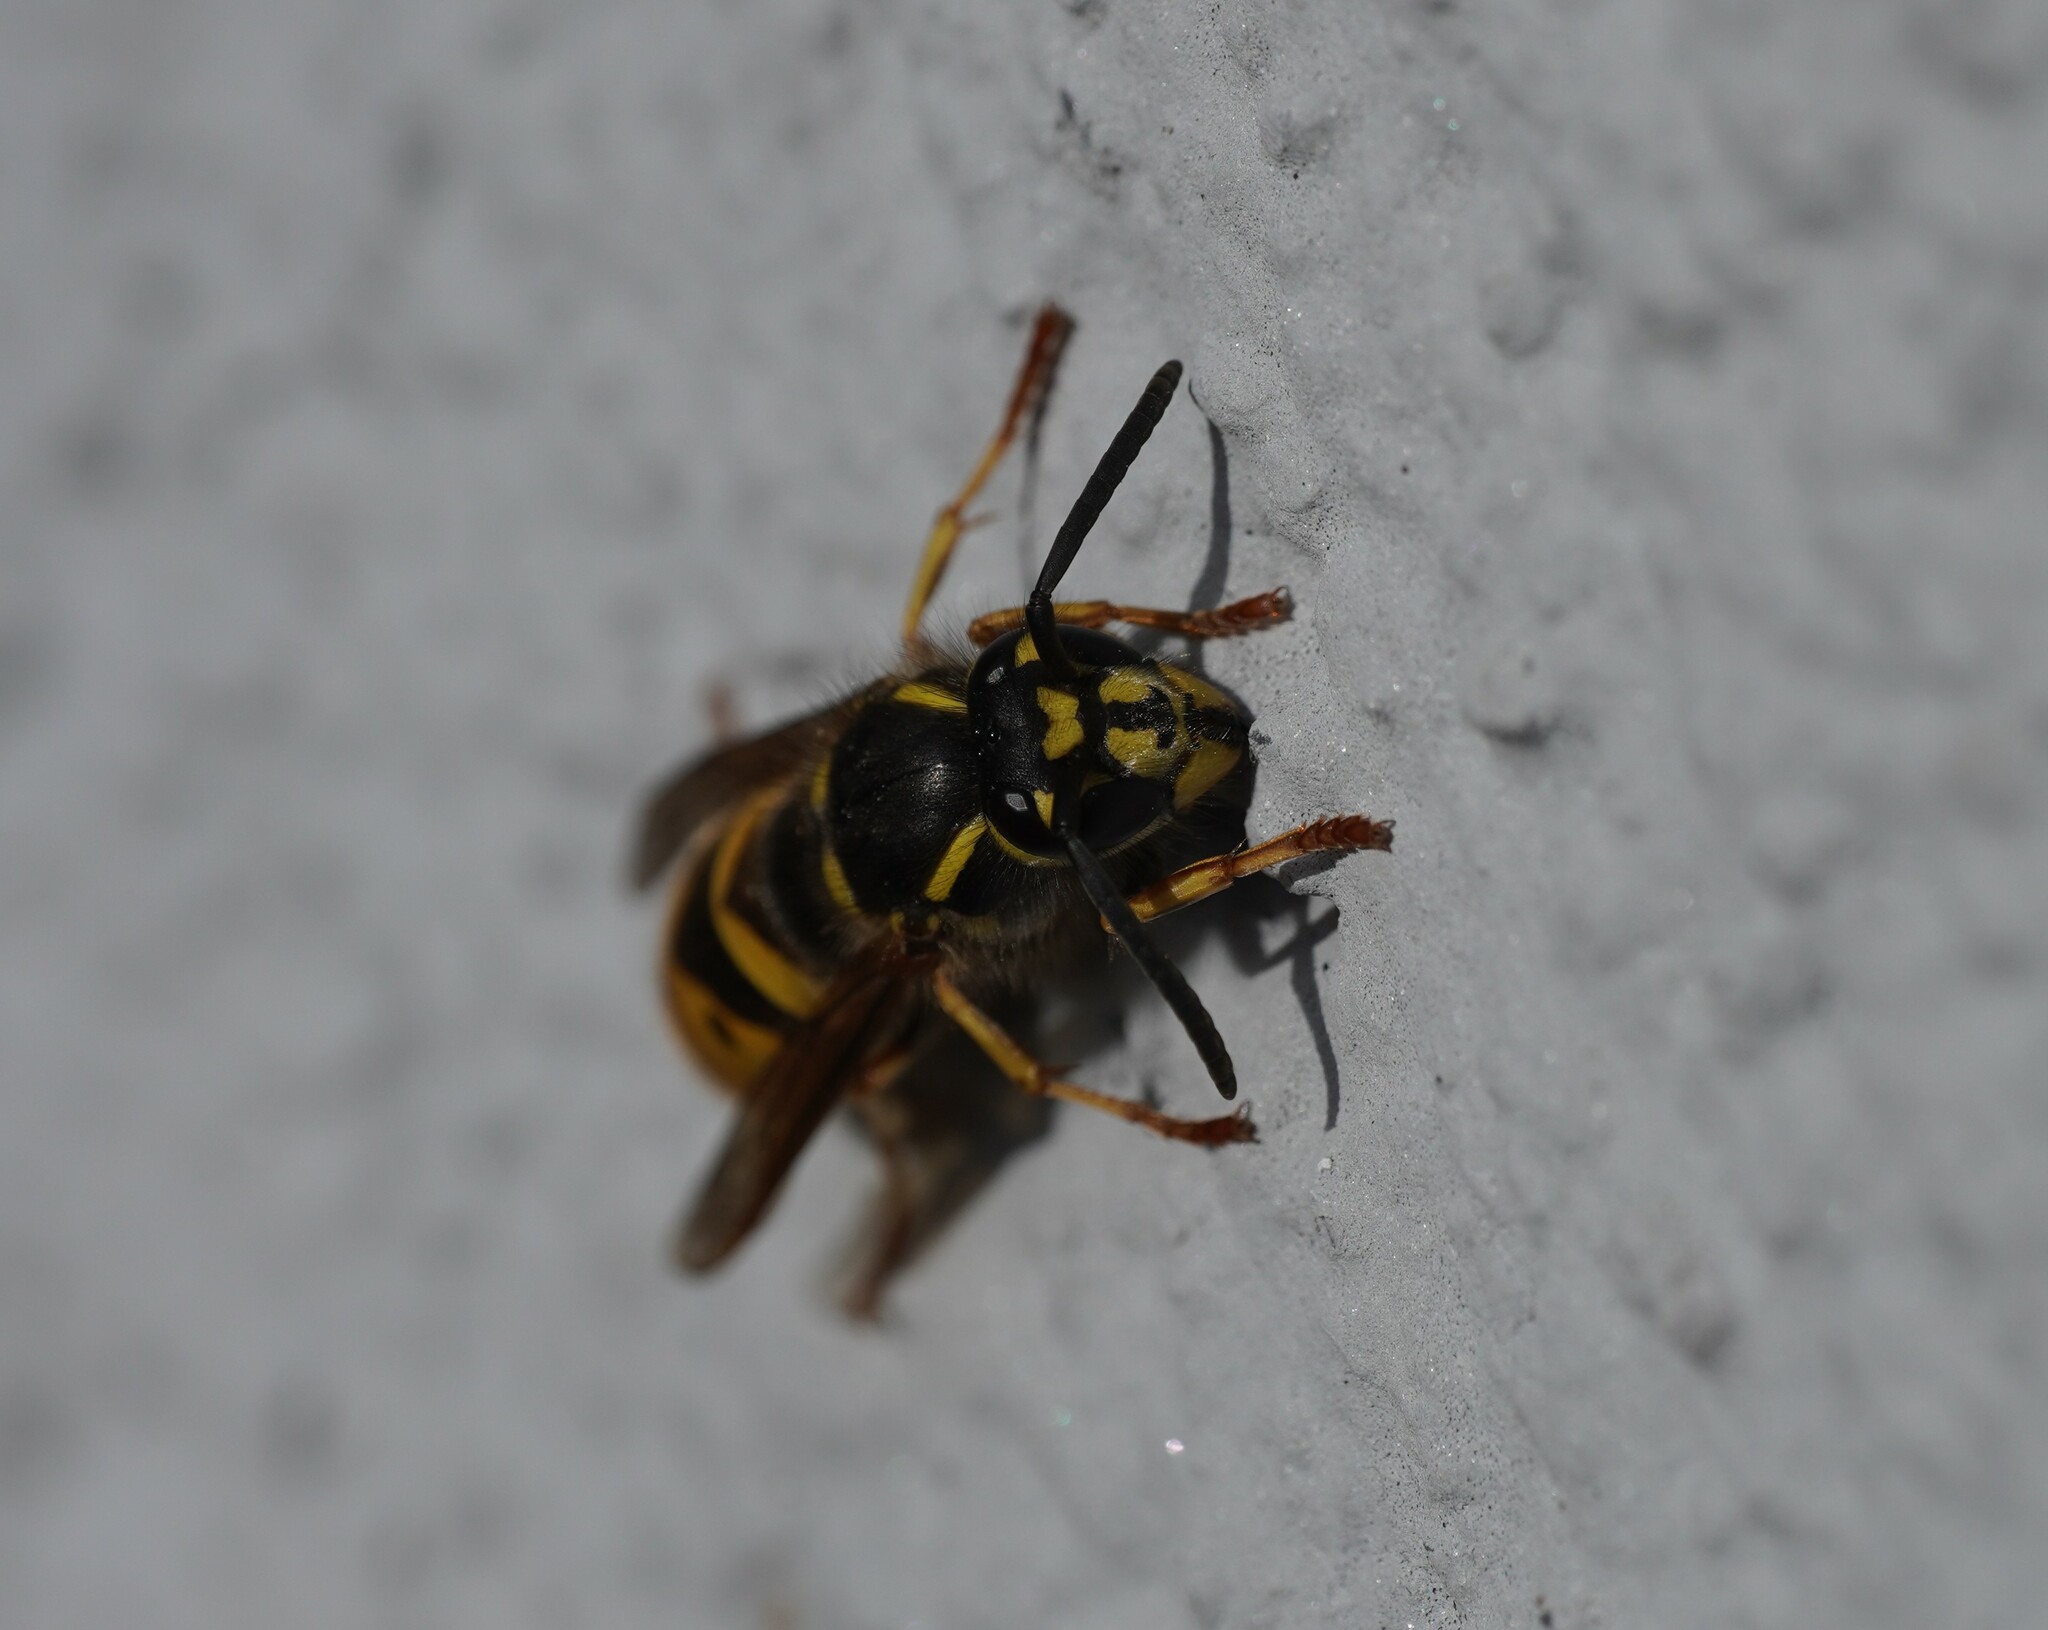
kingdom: Animalia
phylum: Arthropoda
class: Insecta
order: Hymenoptera
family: Vespidae
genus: Vespula
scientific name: Vespula vulgaris
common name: Common wasp
